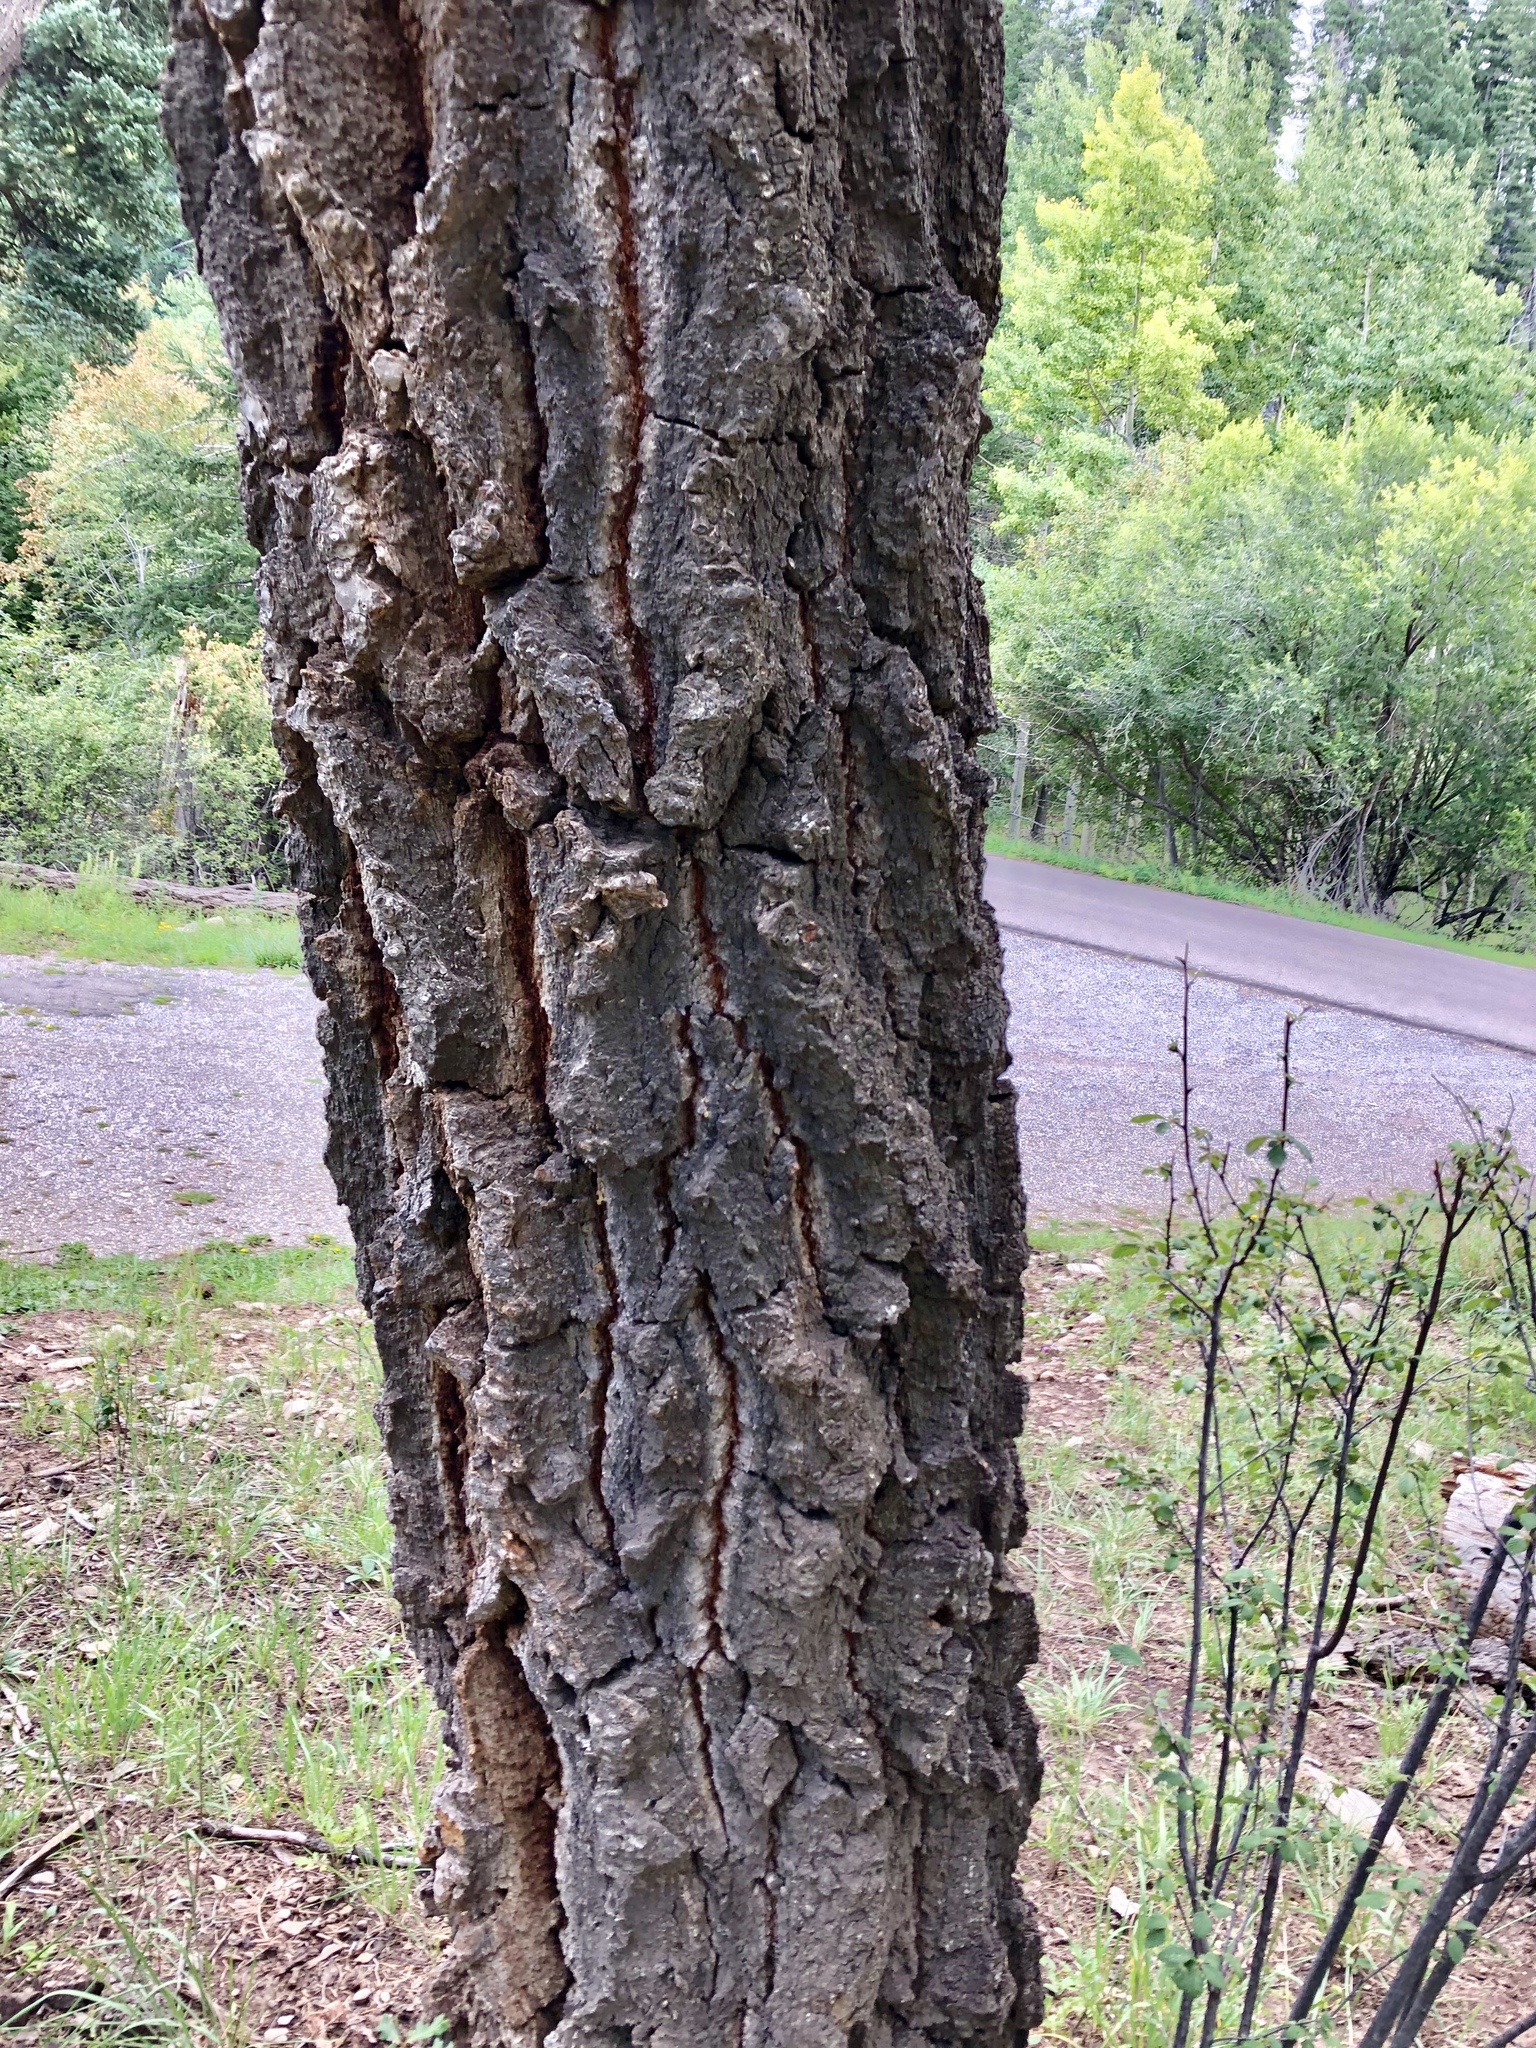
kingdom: Plantae
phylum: Tracheophyta
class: Pinopsida
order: Pinales
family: Pinaceae
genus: Pseudotsuga
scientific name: Pseudotsuga menziesii
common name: Douglas fir
